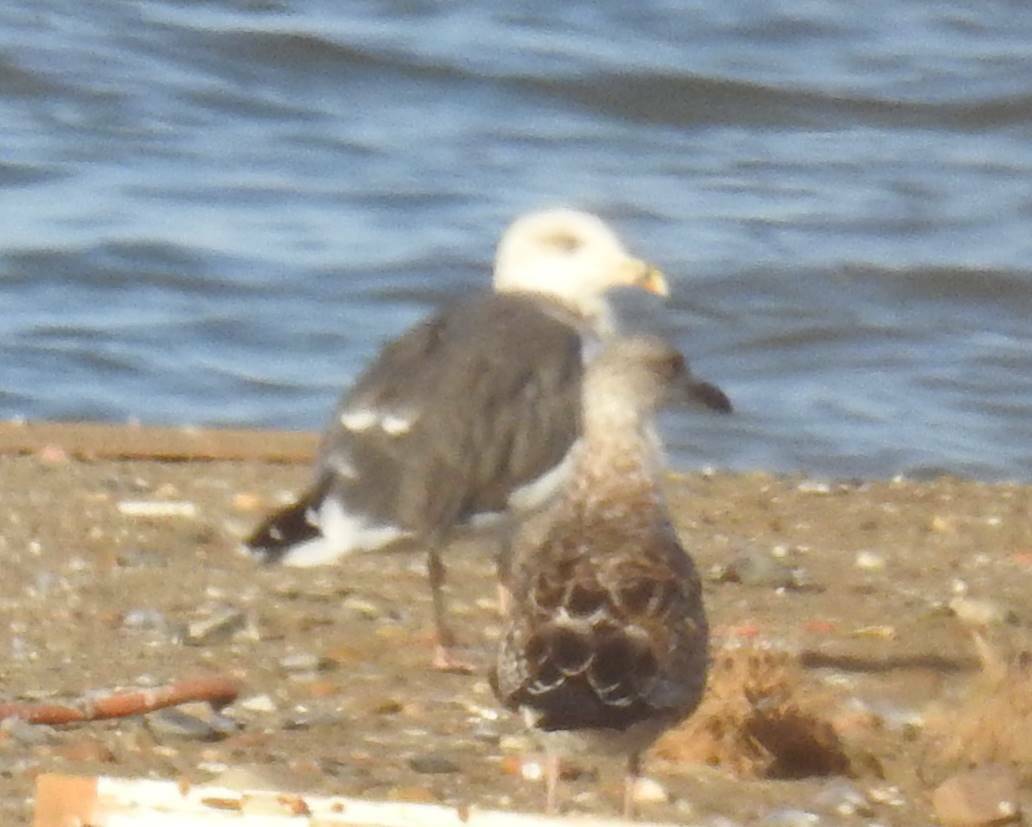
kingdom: Animalia
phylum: Chordata
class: Aves
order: Charadriiformes
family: Laridae
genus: Larus
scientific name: Larus fuscus
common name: Lesser black-backed gull
